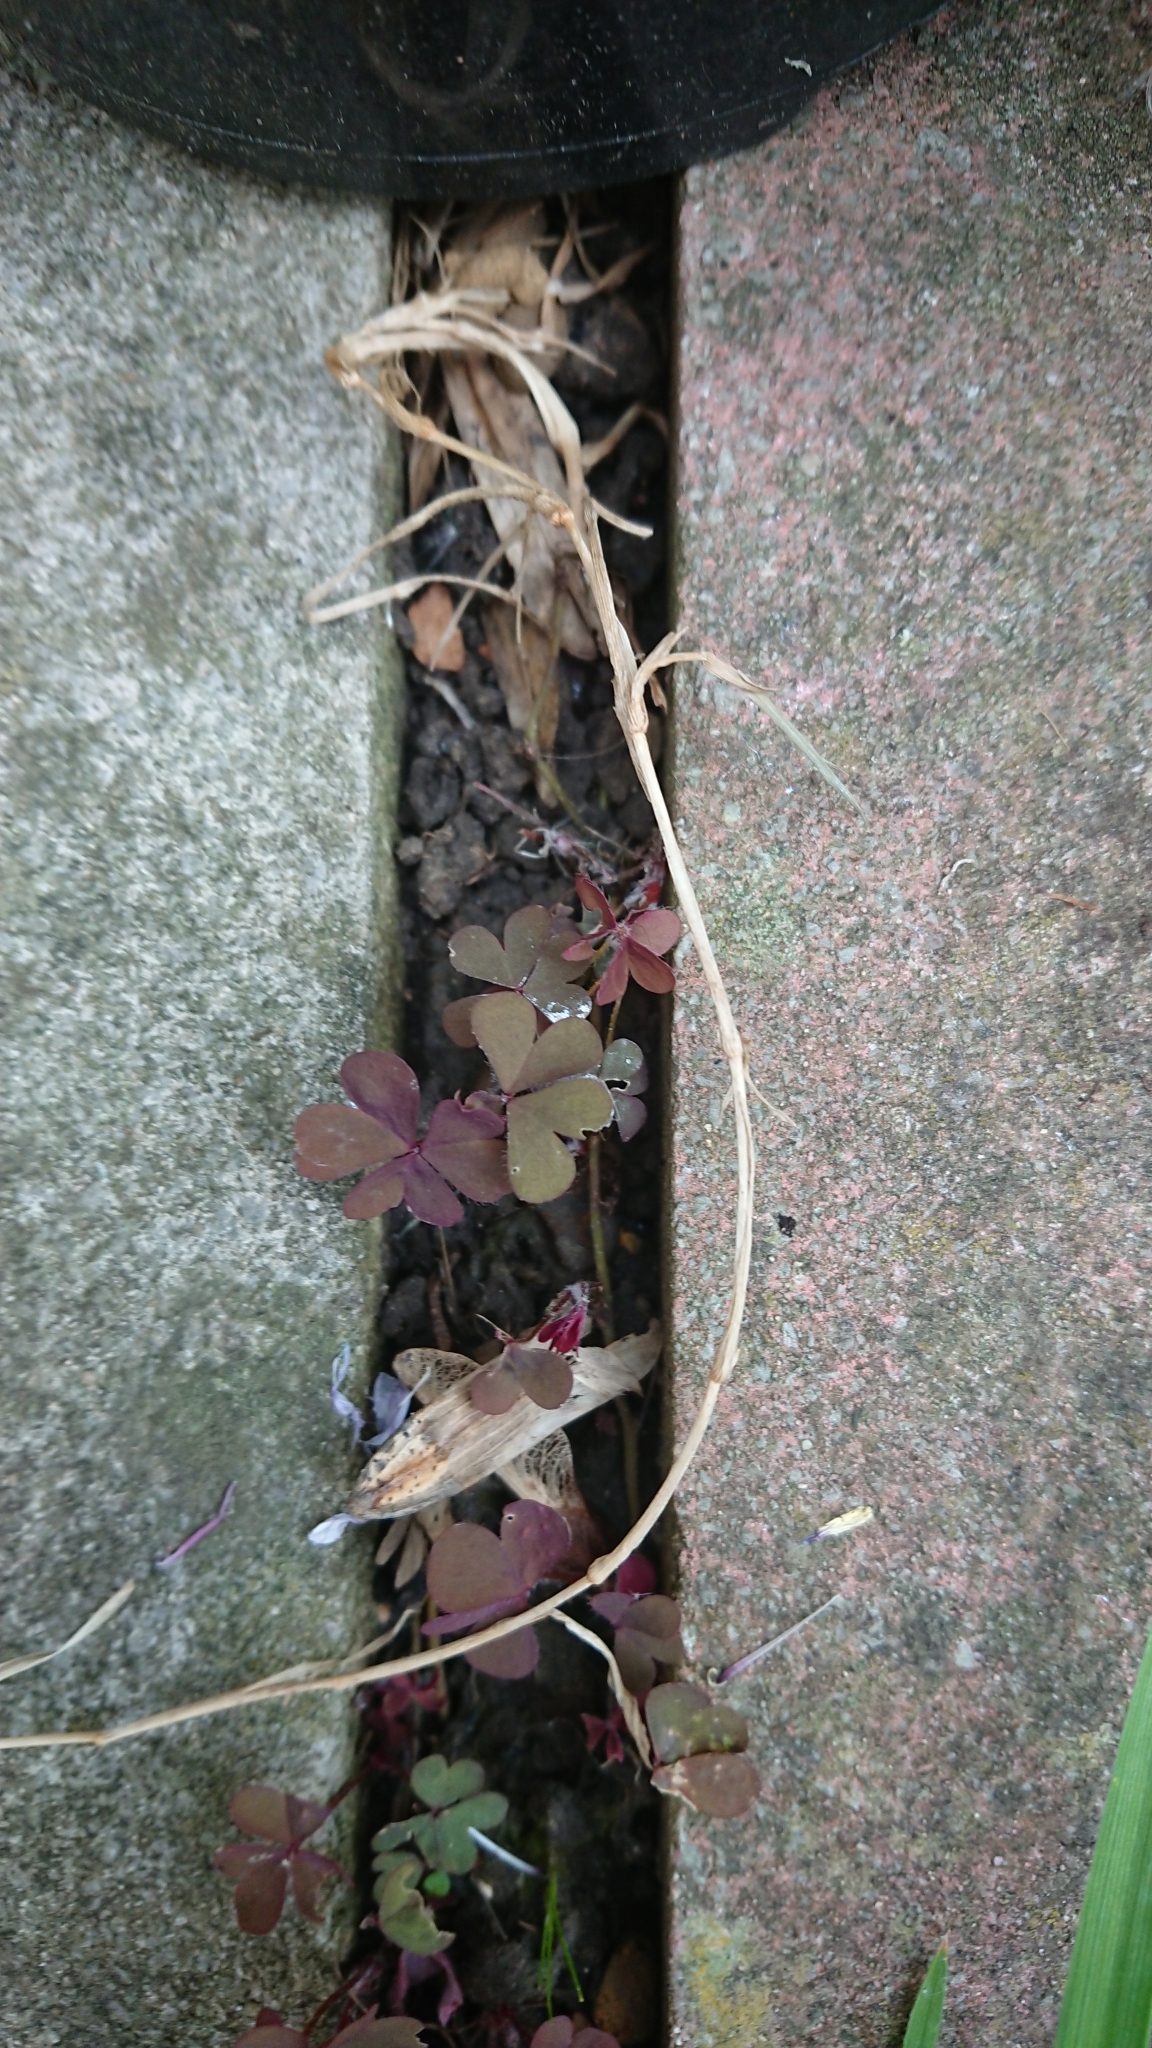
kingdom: Plantae
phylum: Tracheophyta
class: Magnoliopsida
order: Oxalidales
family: Oxalidaceae
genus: Oxalis
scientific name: Oxalis corniculata
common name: Procumbent yellow-sorrel
